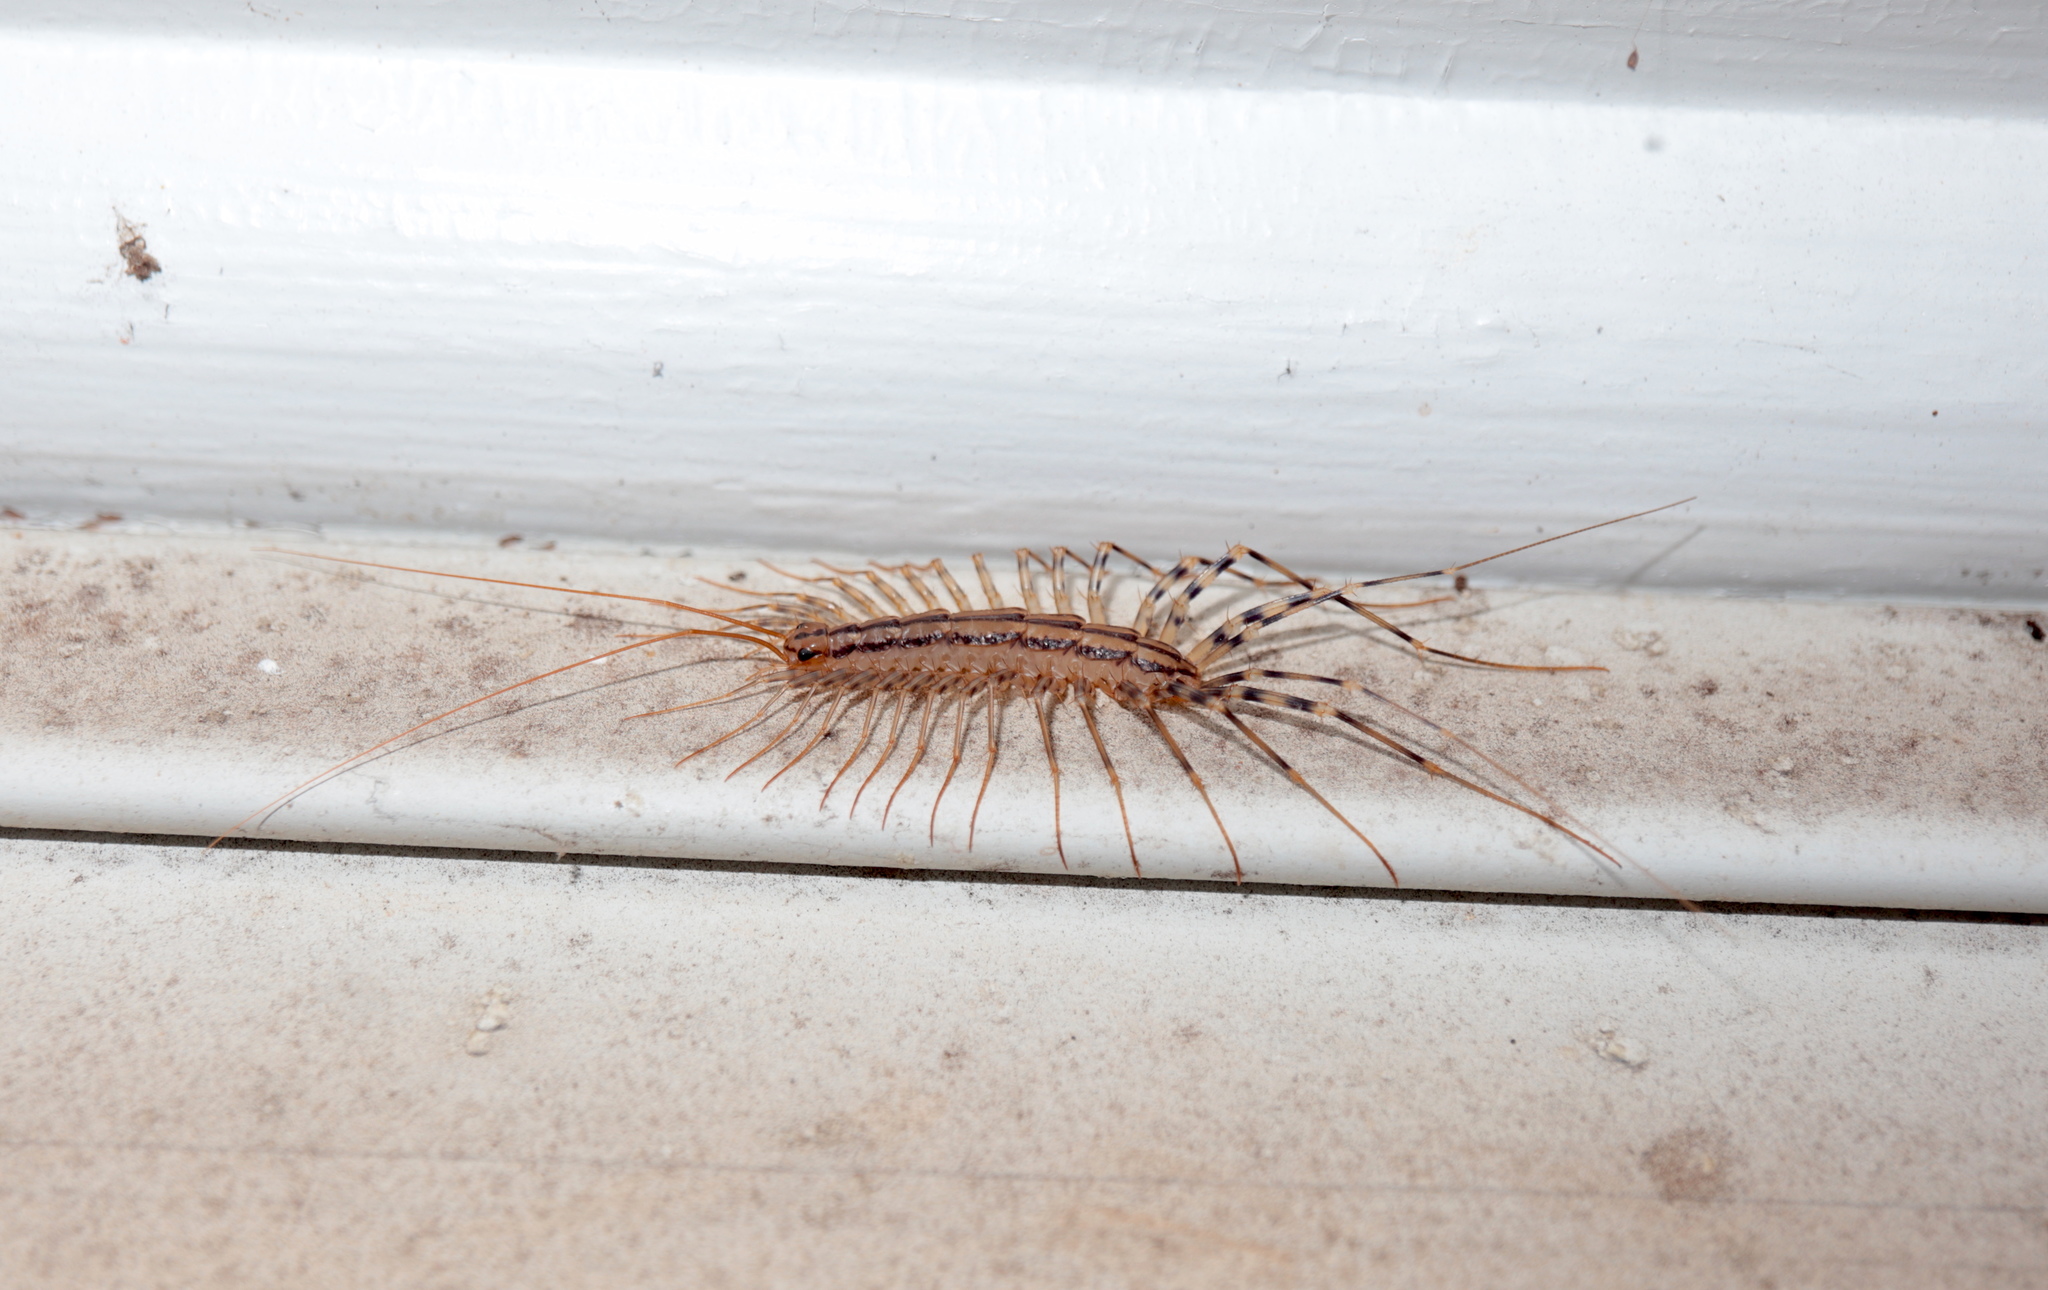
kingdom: Animalia
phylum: Arthropoda
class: Chilopoda
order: Scutigeromorpha
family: Scutigeridae
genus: Scutigera
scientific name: Scutigera coleoptrata
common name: House centipede
